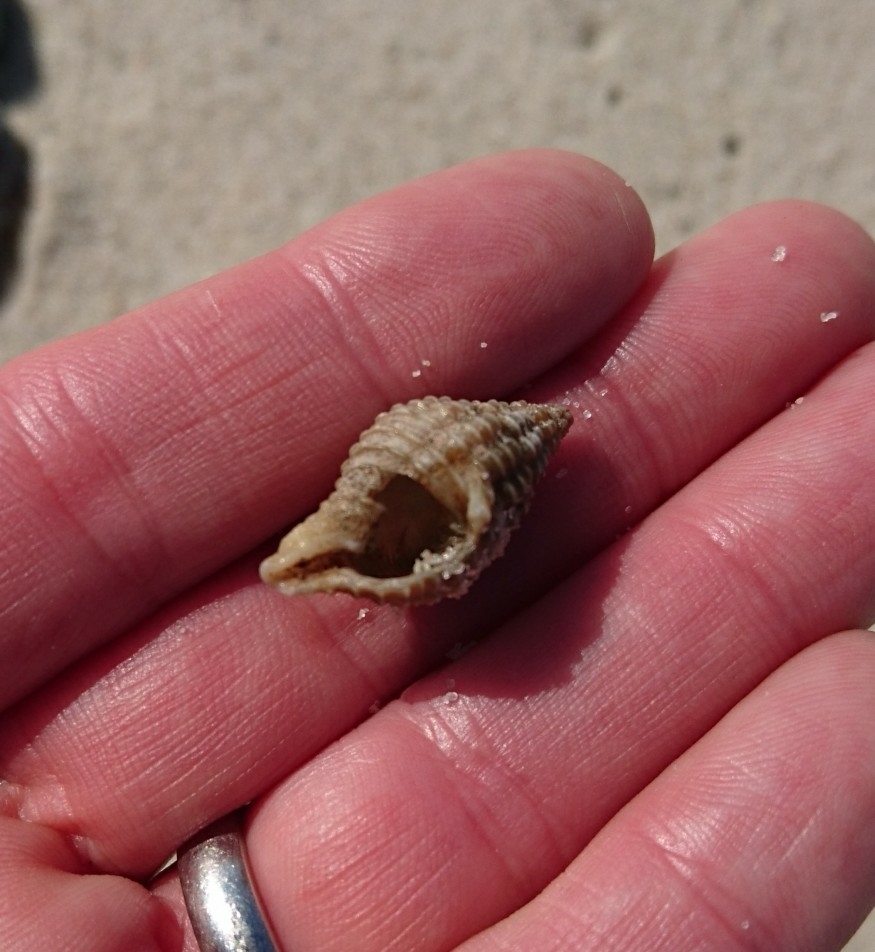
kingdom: Animalia
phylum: Mollusca
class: Gastropoda
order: Neogastropoda
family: Pisaniidae
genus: Solenosteira
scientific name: Solenosteira cancellaria
